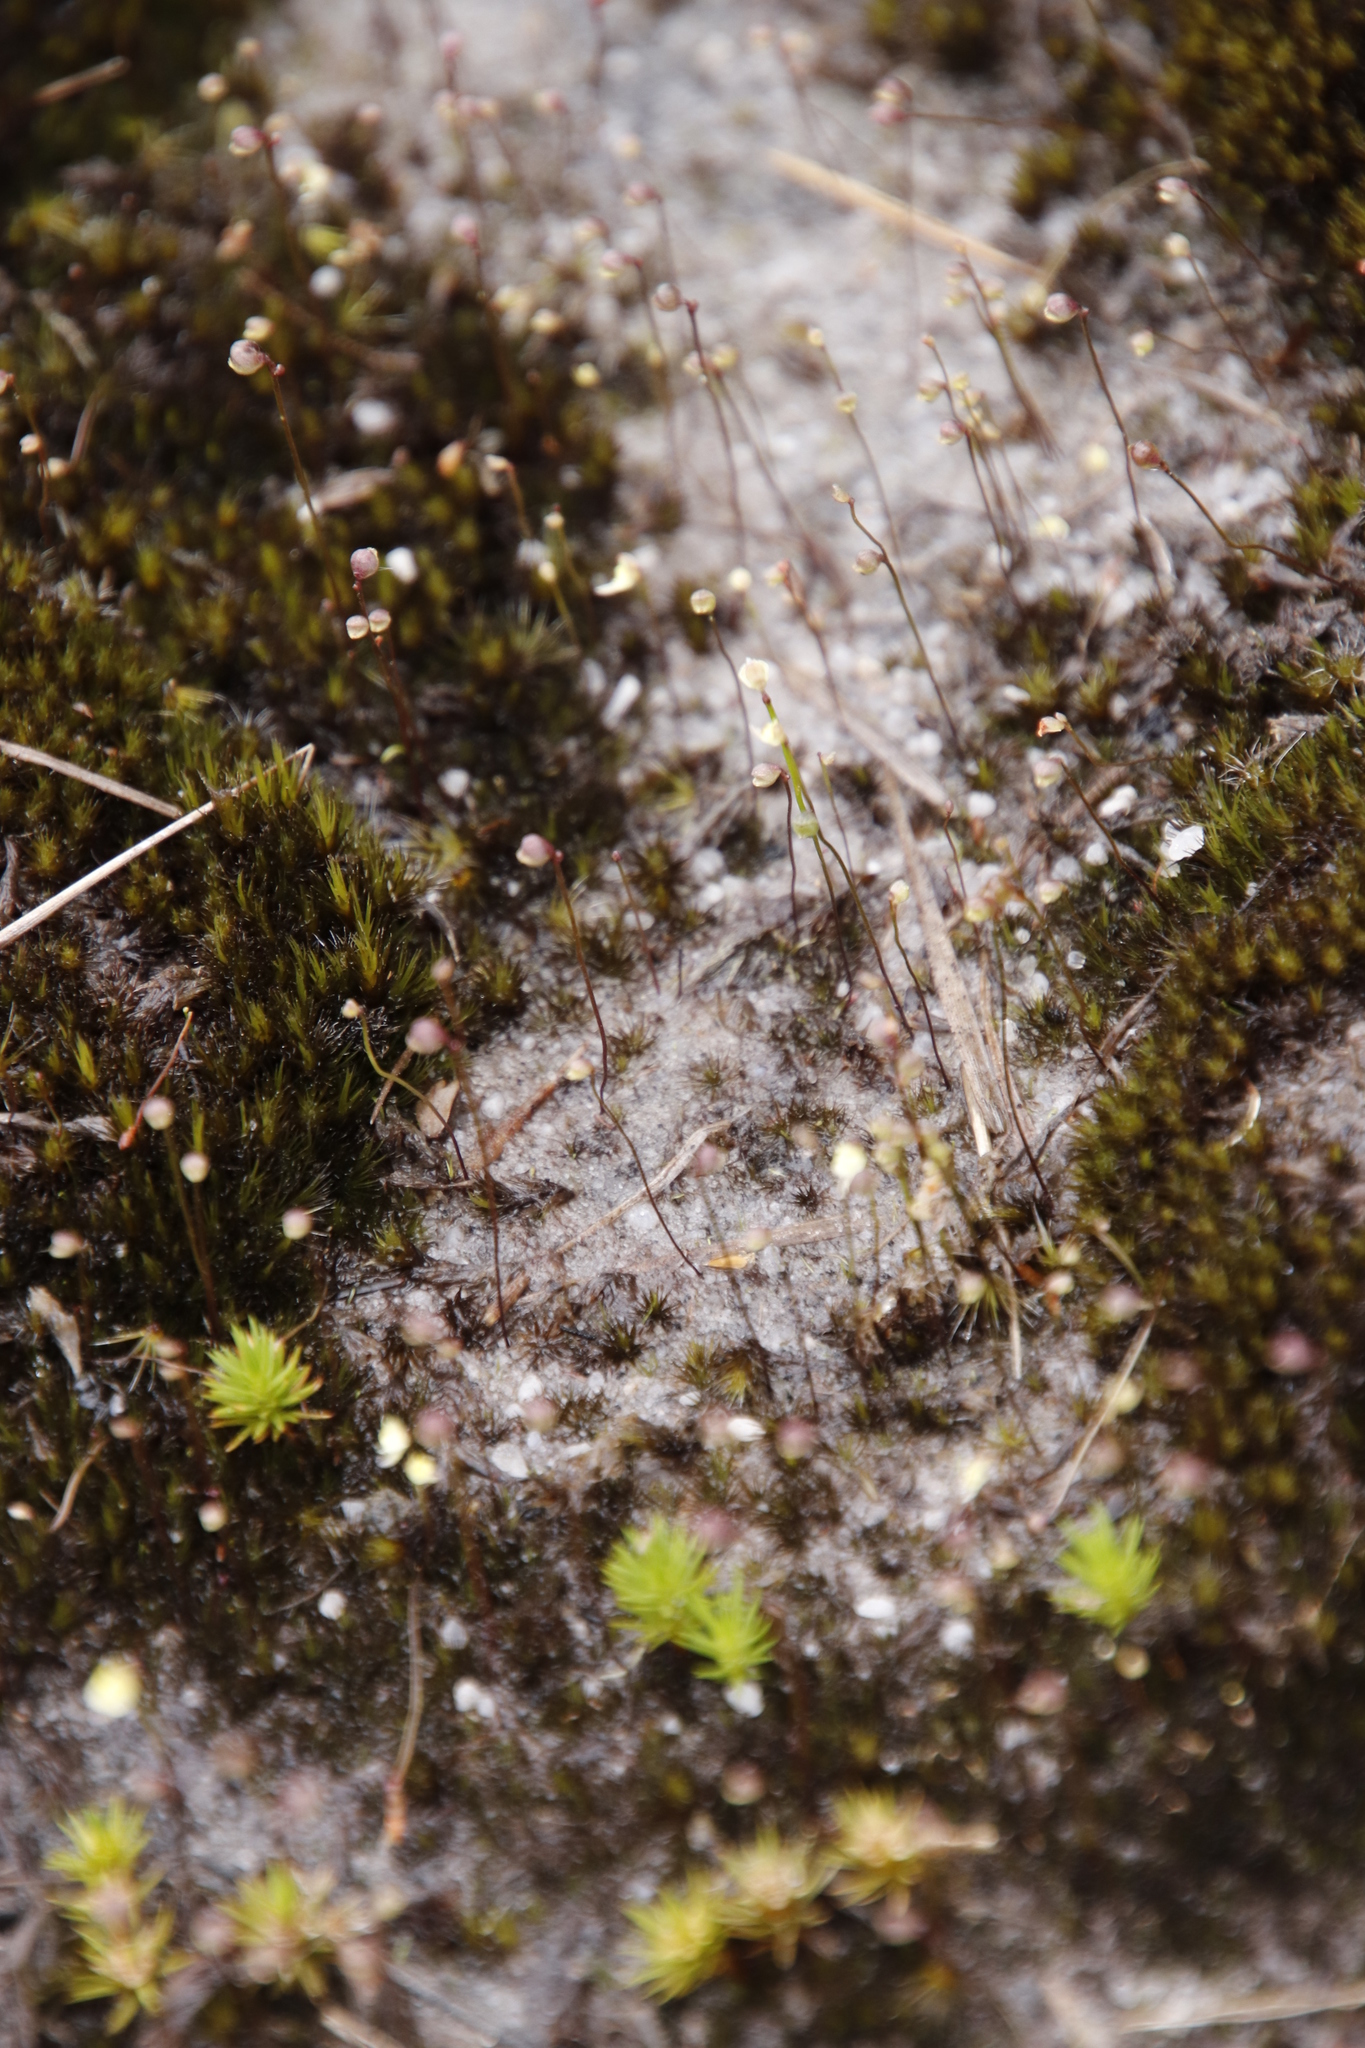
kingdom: Plantae
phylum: Tracheophyta
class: Magnoliopsida
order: Lamiales
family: Lentibulariaceae
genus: Utricularia
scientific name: Utricularia bisquamata
